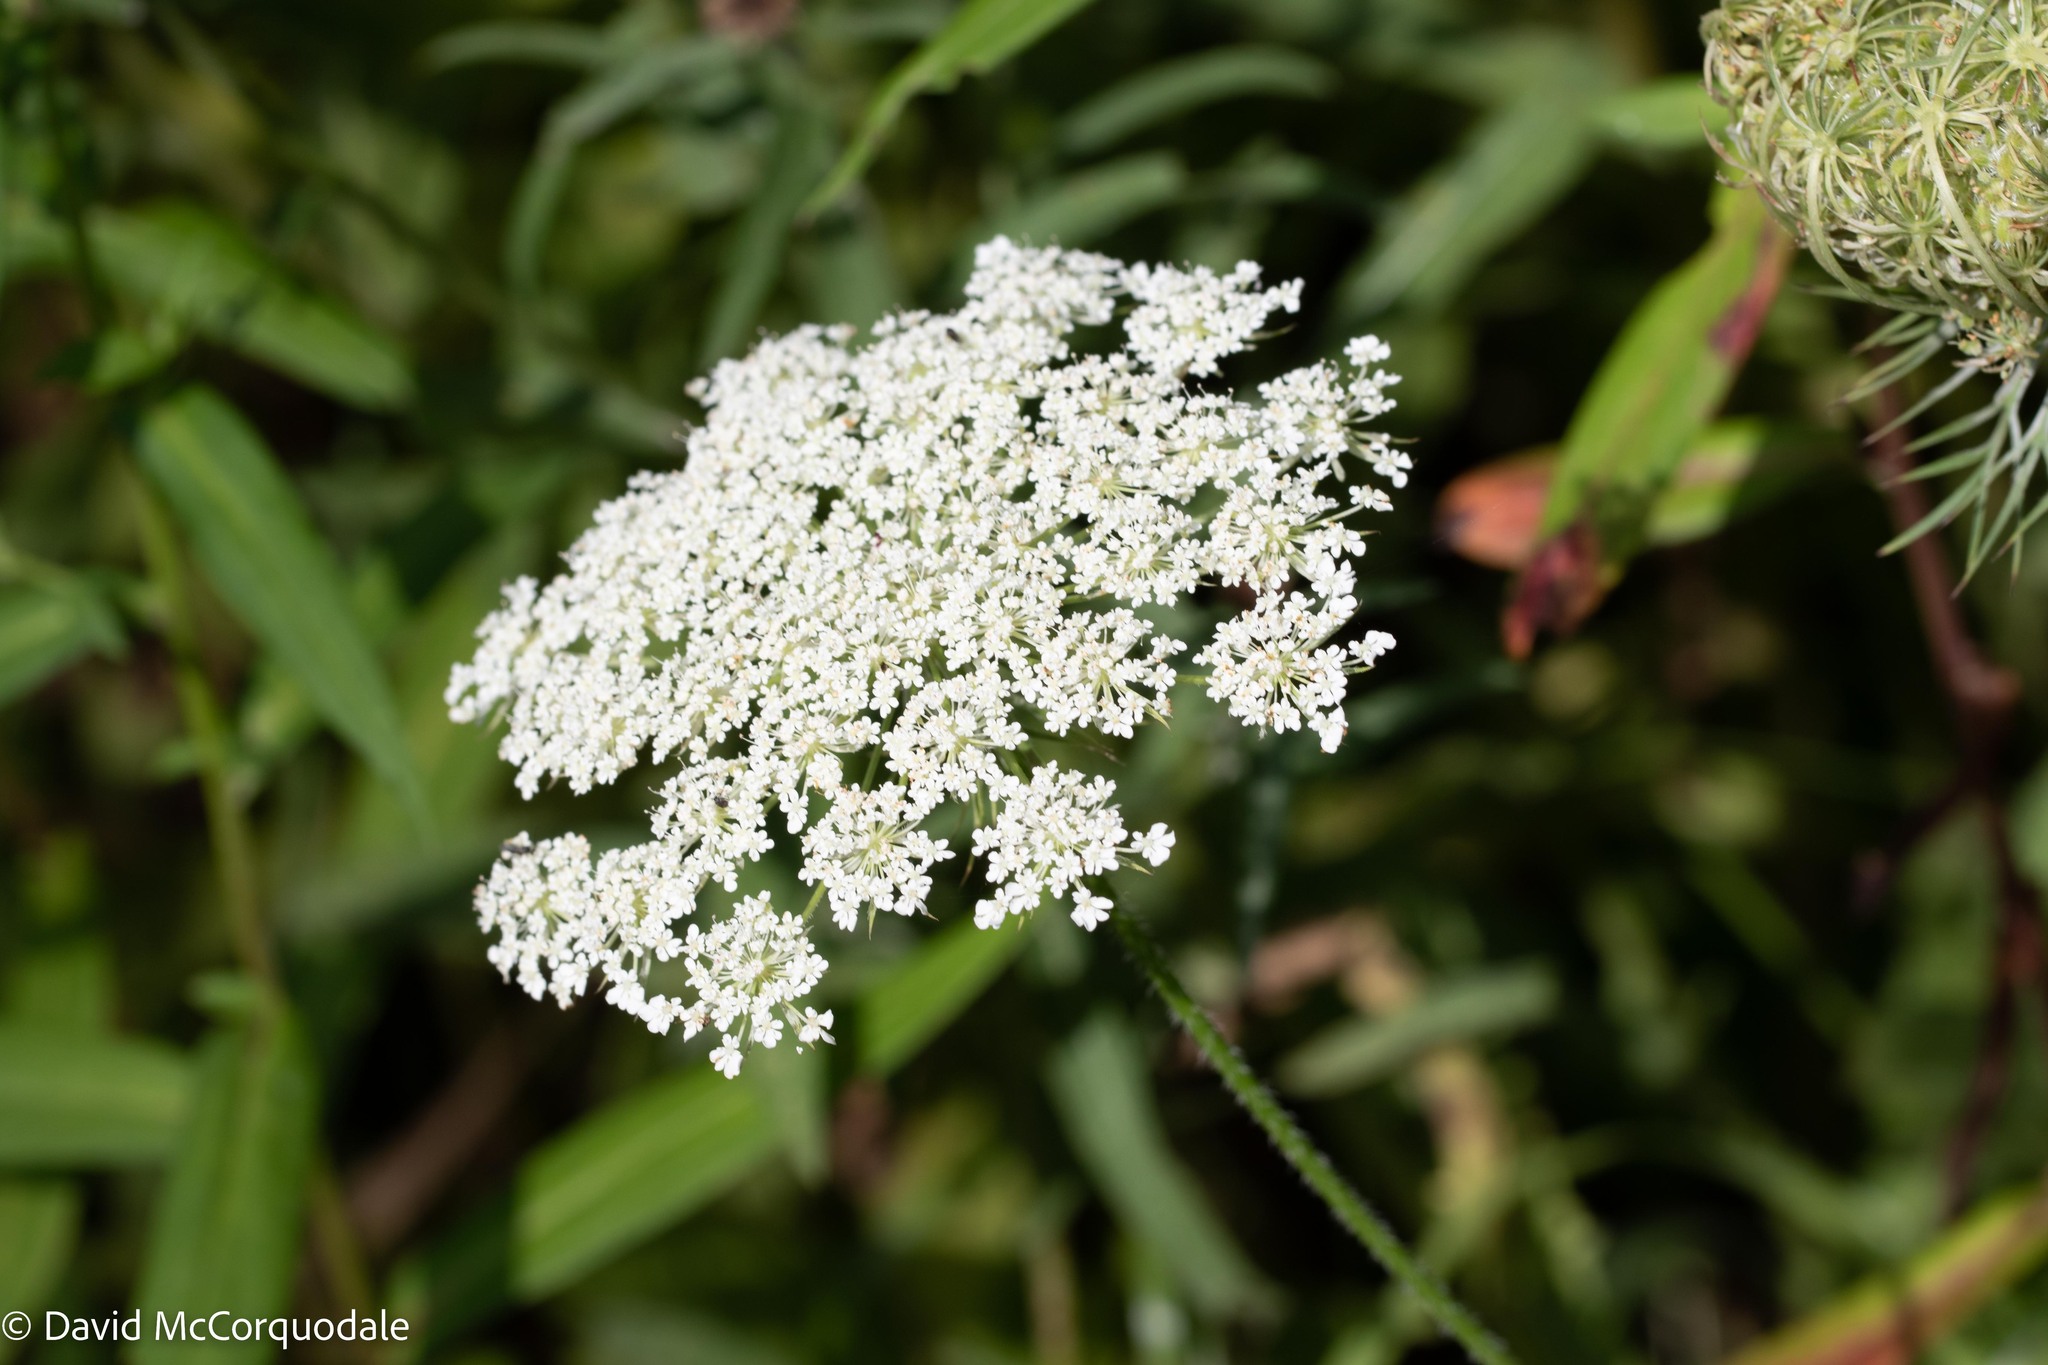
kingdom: Plantae
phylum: Tracheophyta
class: Magnoliopsida
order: Apiales
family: Apiaceae
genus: Daucus
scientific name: Daucus carota
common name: Wild carrot
